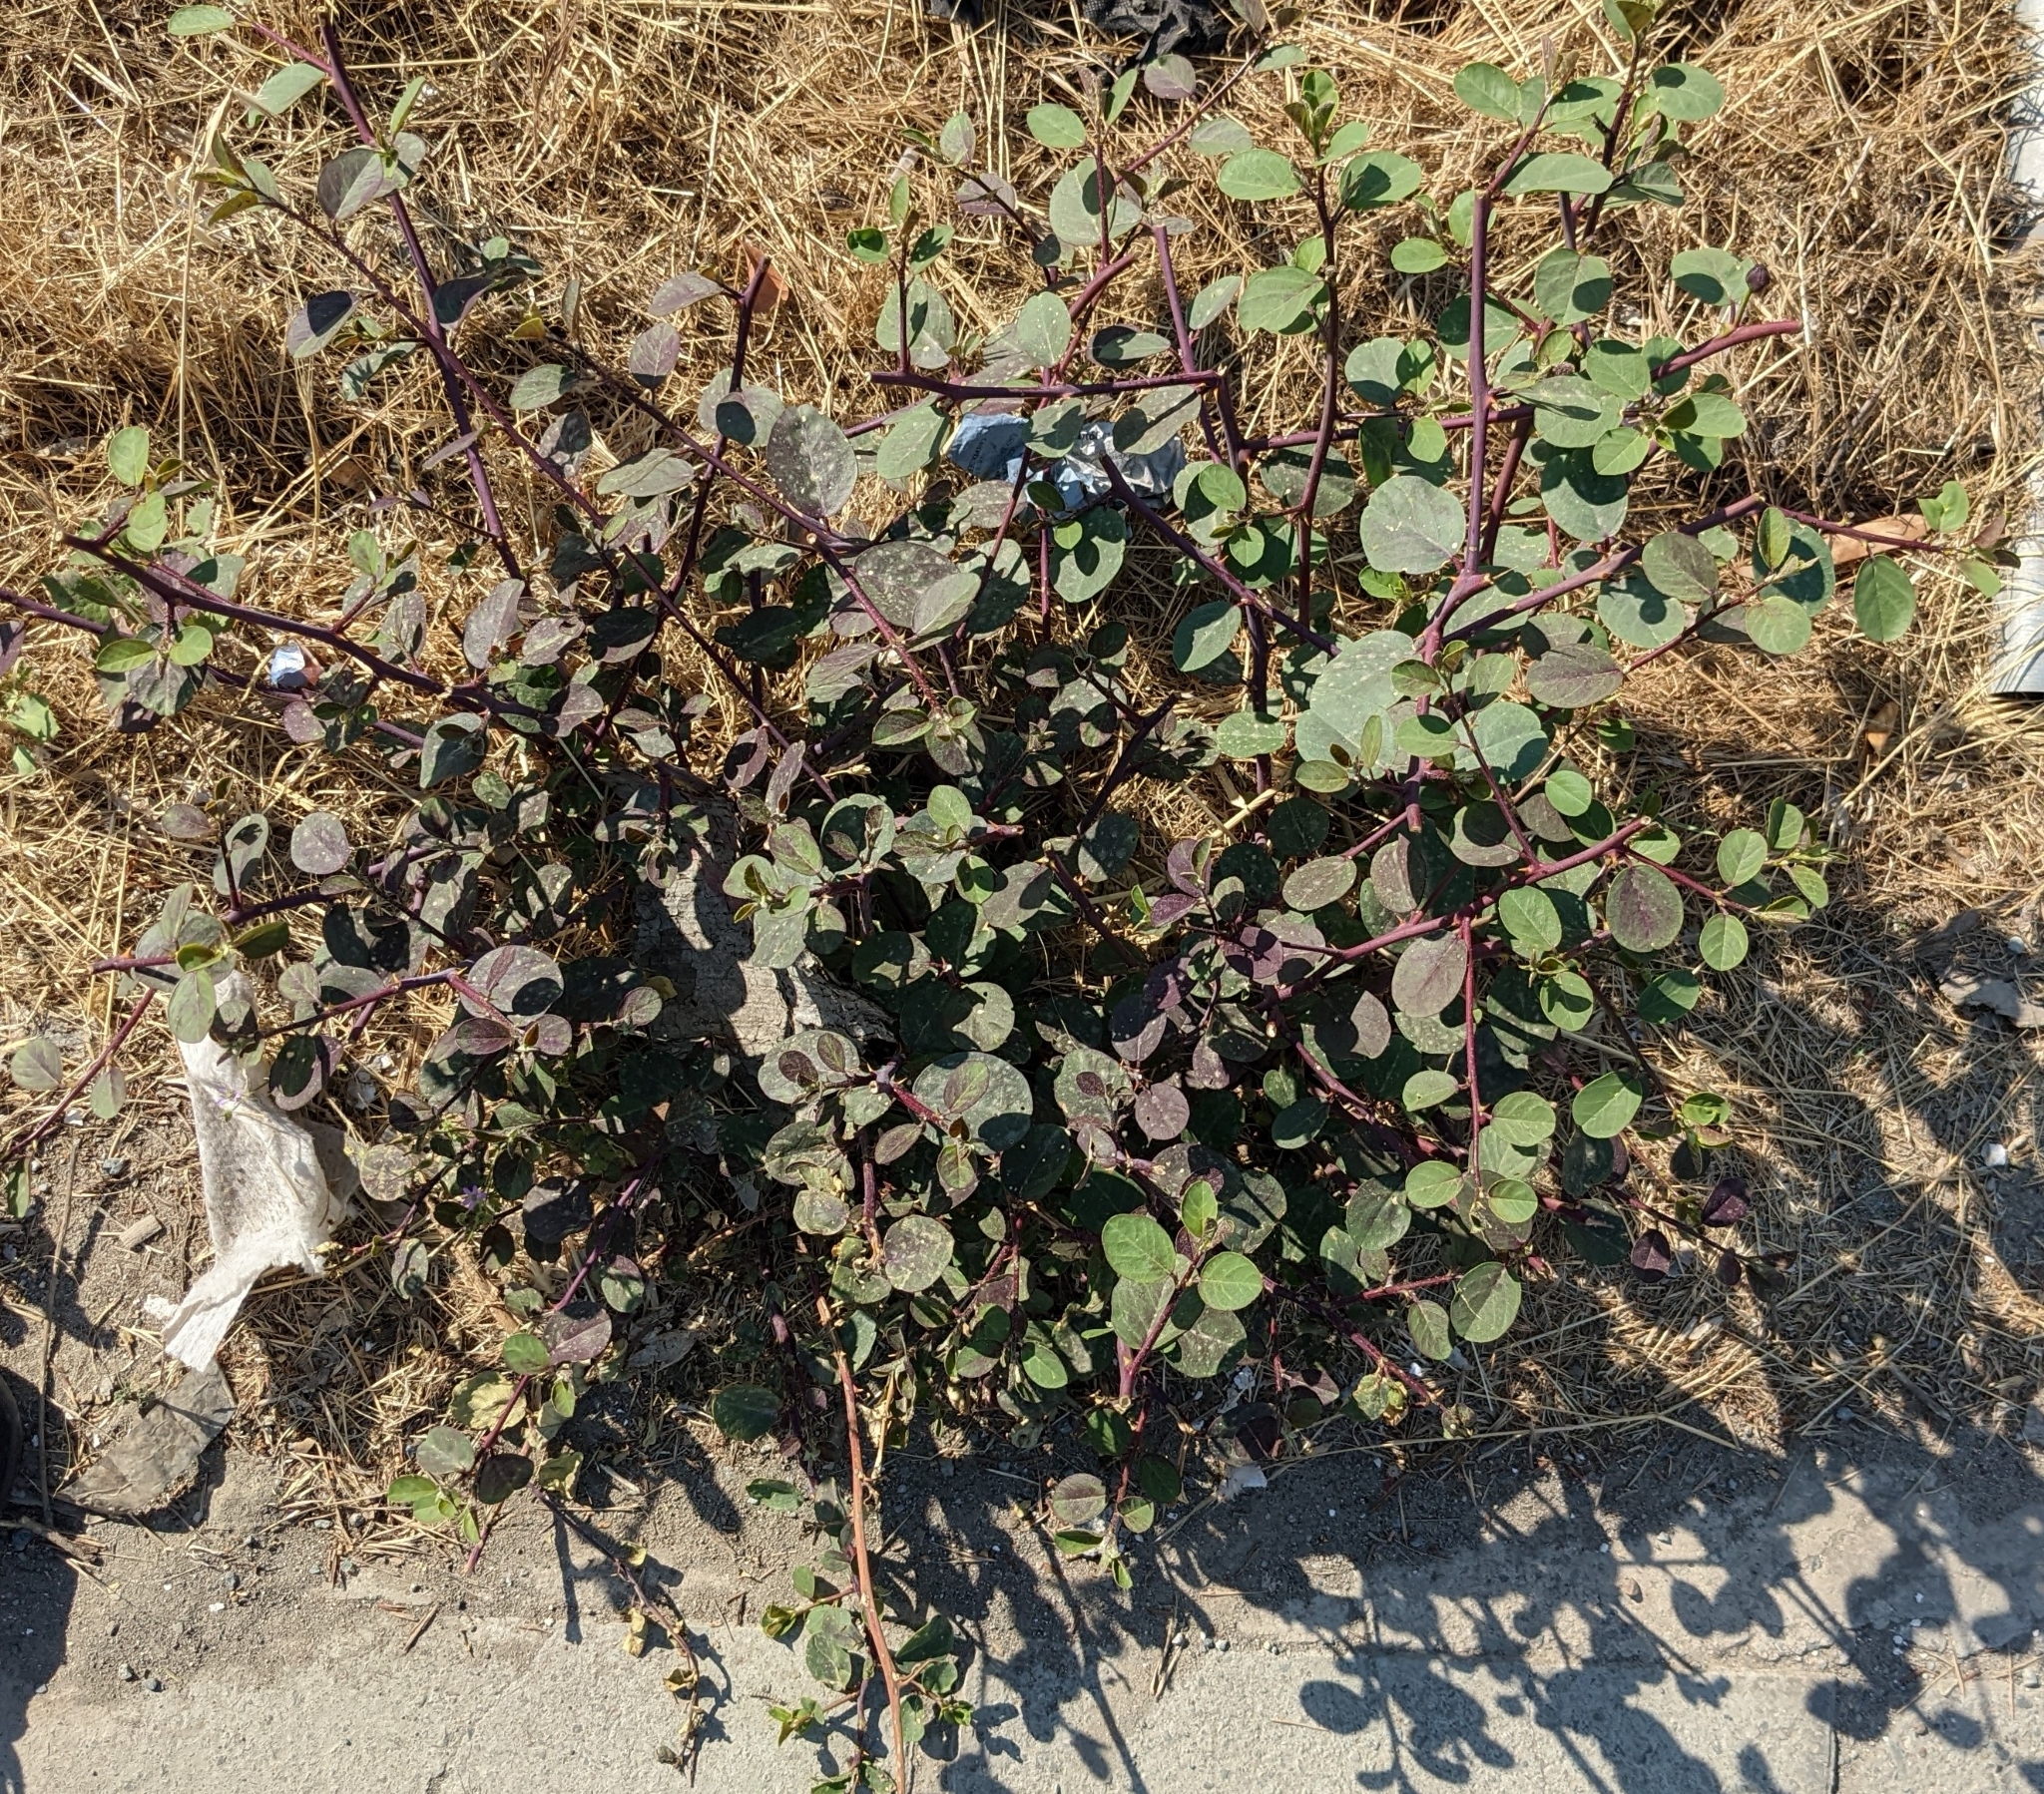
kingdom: Plantae
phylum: Tracheophyta
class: Magnoliopsida
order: Brassicales
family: Capparaceae
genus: Capparis
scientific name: Capparis spinosa
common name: Caper
